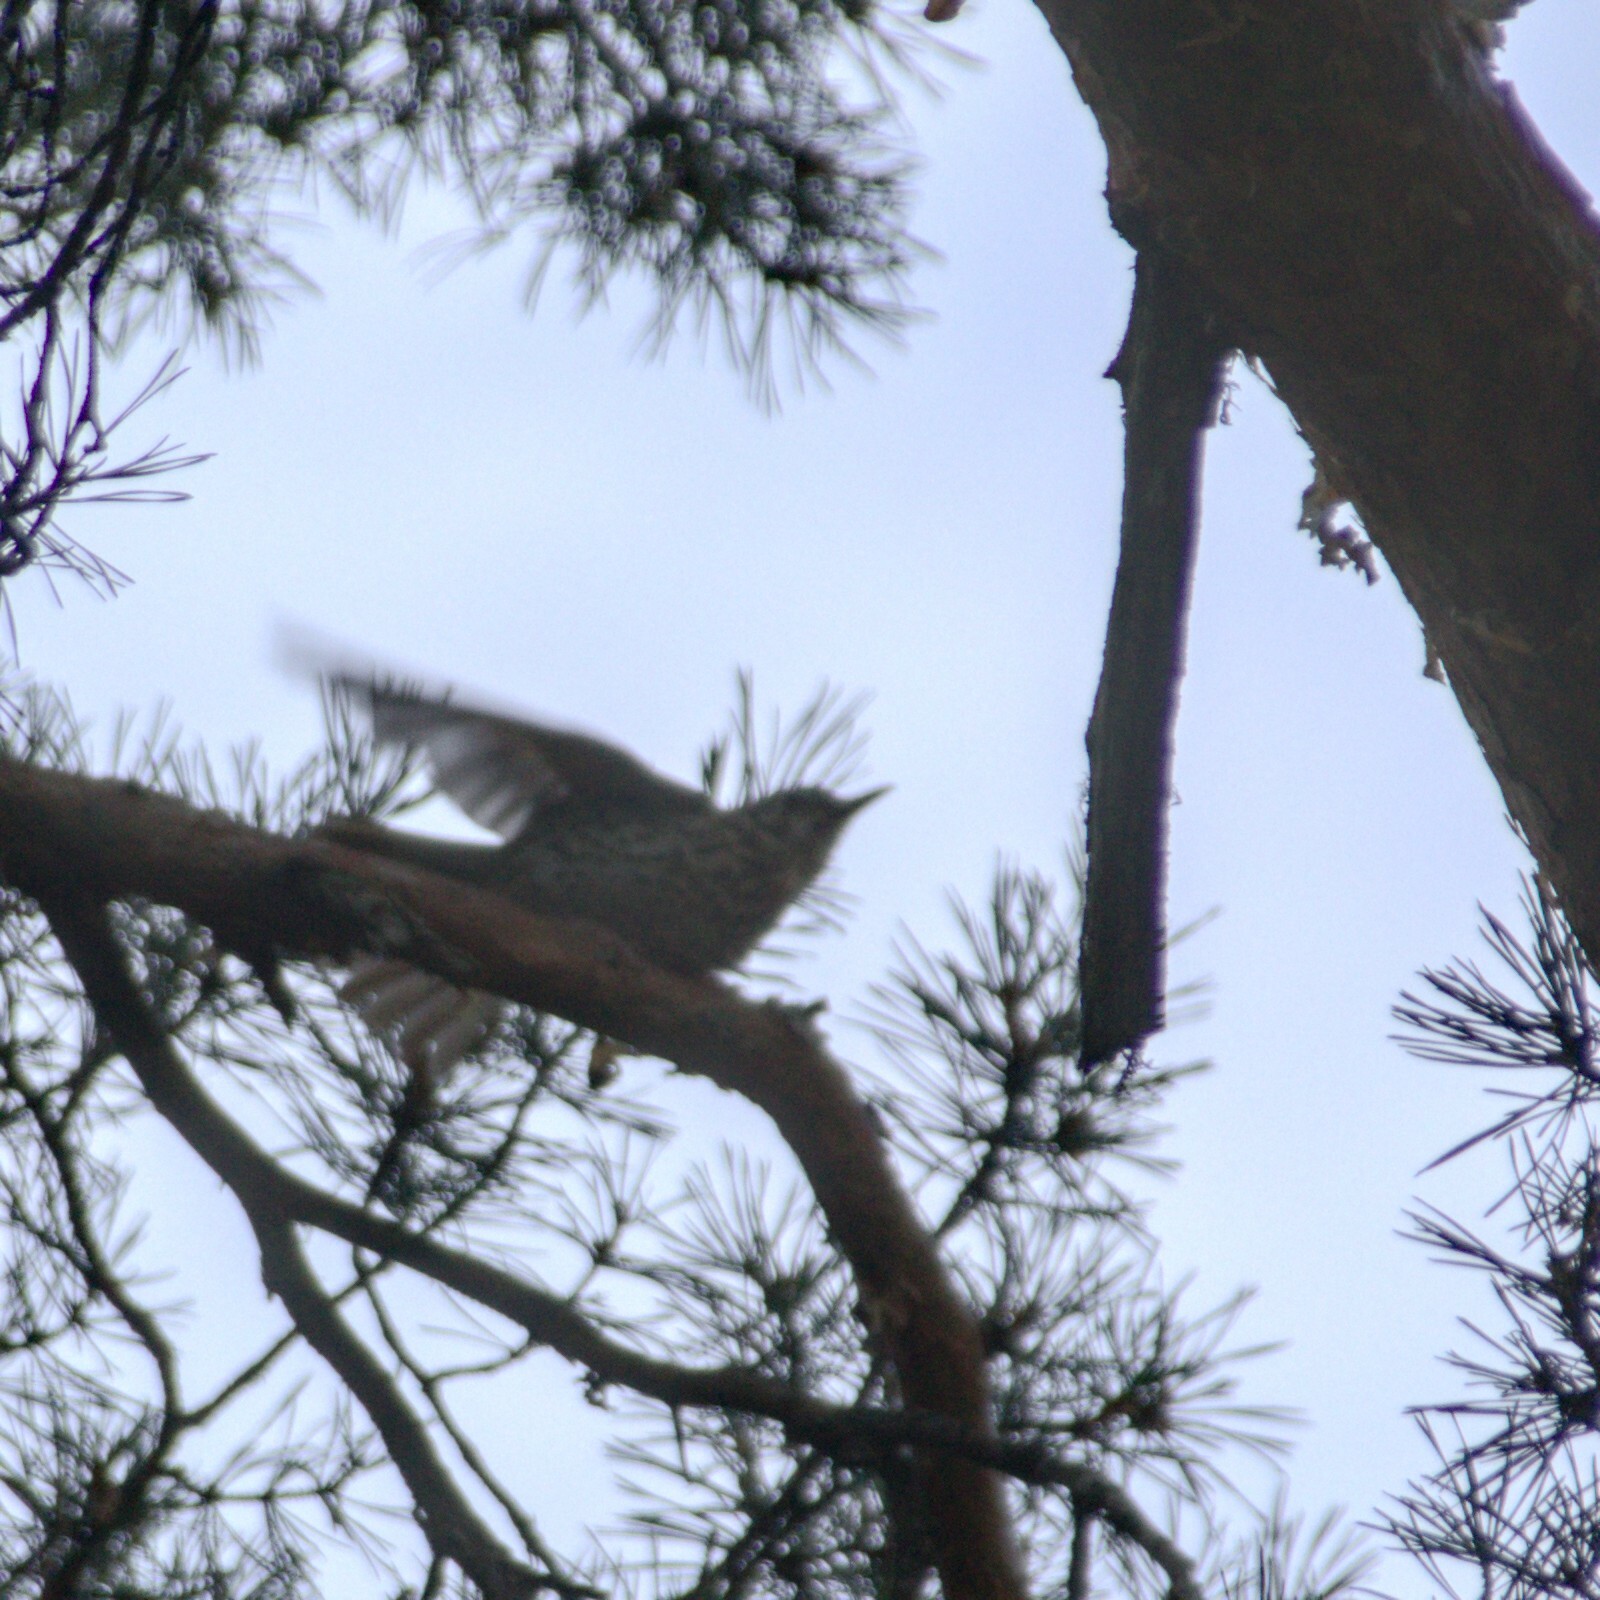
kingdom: Animalia
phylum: Chordata
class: Aves
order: Passeriformes
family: Turdidae
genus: Turdus
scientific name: Turdus philomelos
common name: Song thrush
